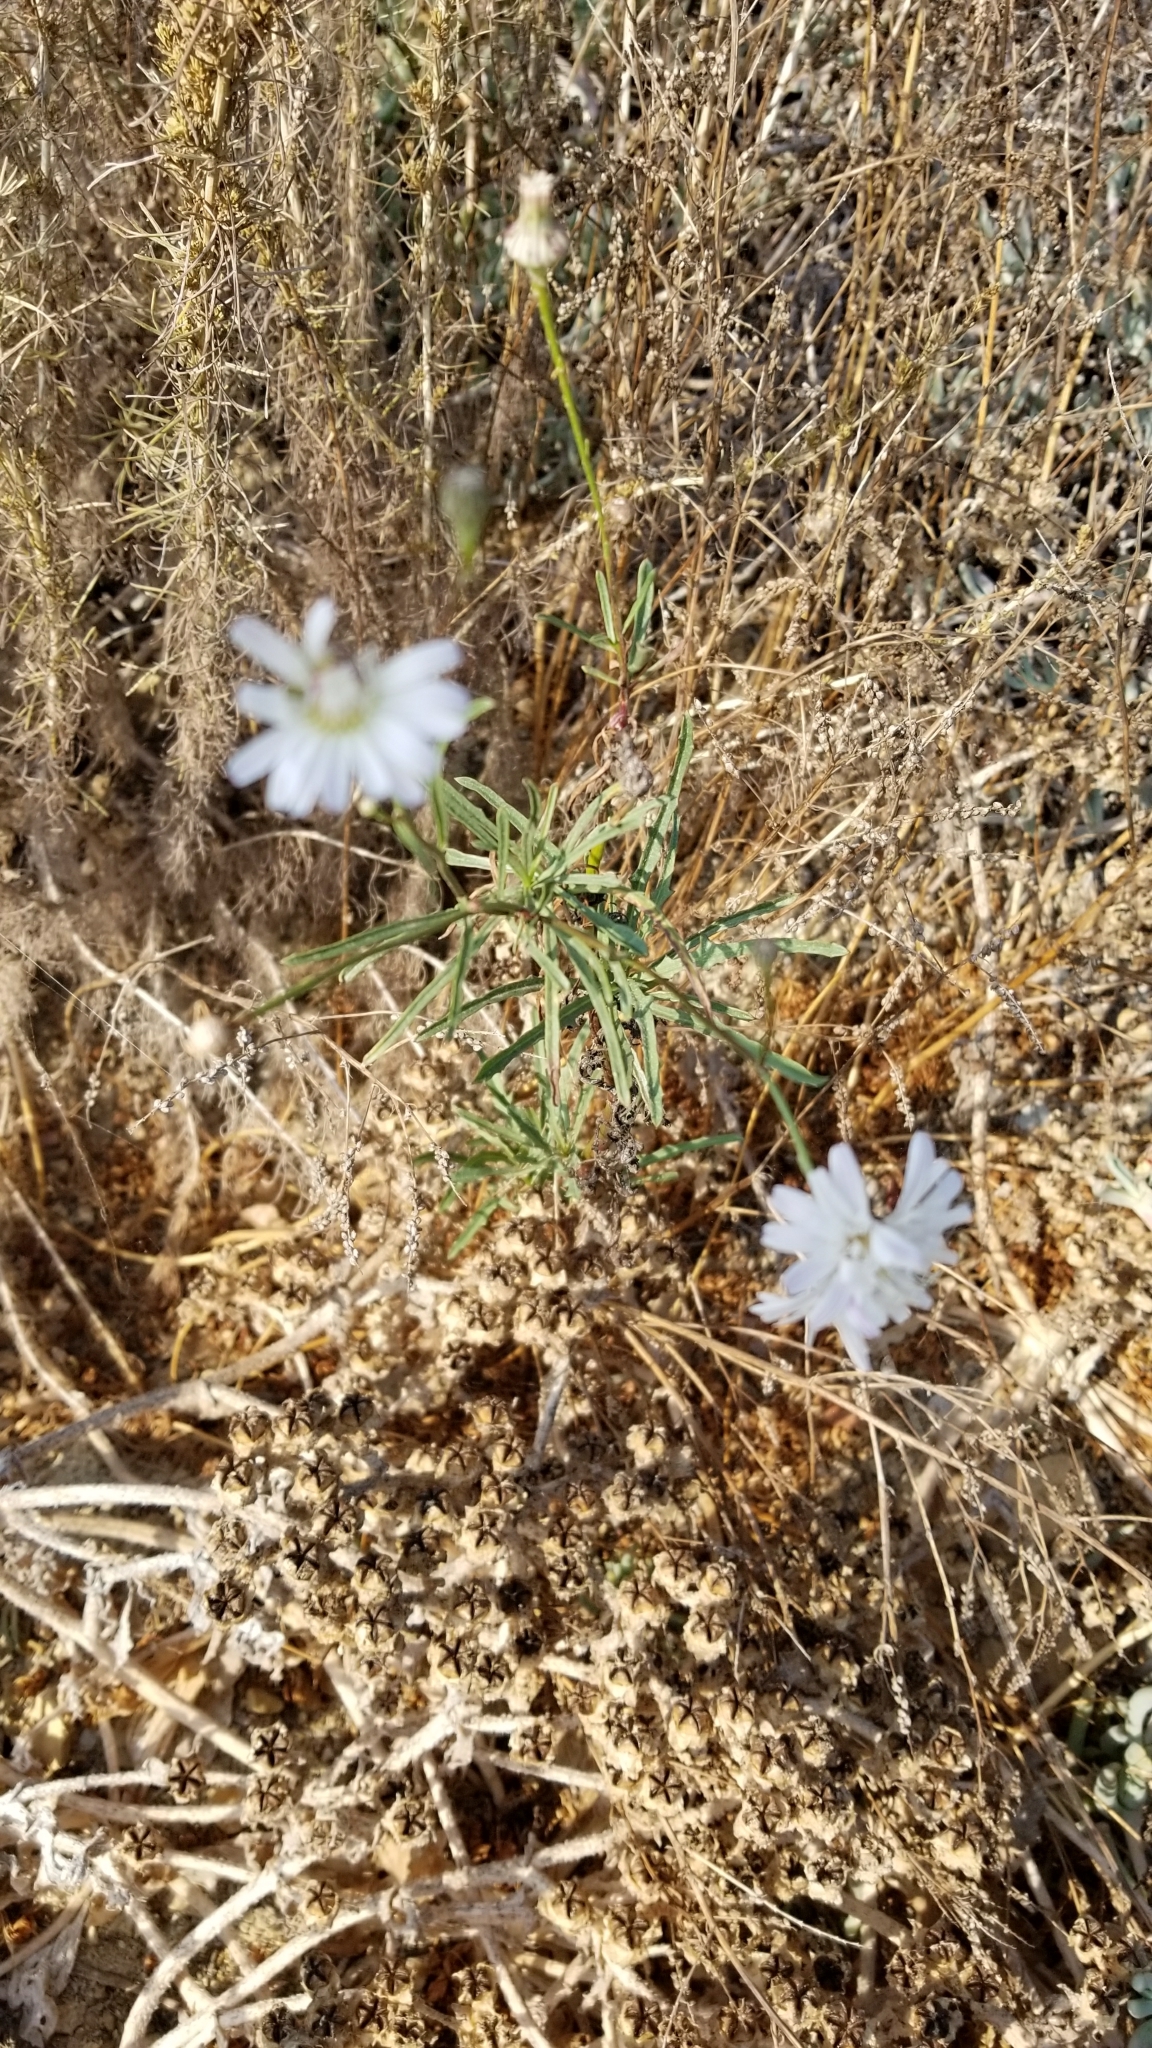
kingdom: Plantae
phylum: Tracheophyta
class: Magnoliopsida
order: Asterales
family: Asteraceae
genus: Malacothrix
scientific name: Malacothrix saxatilis
